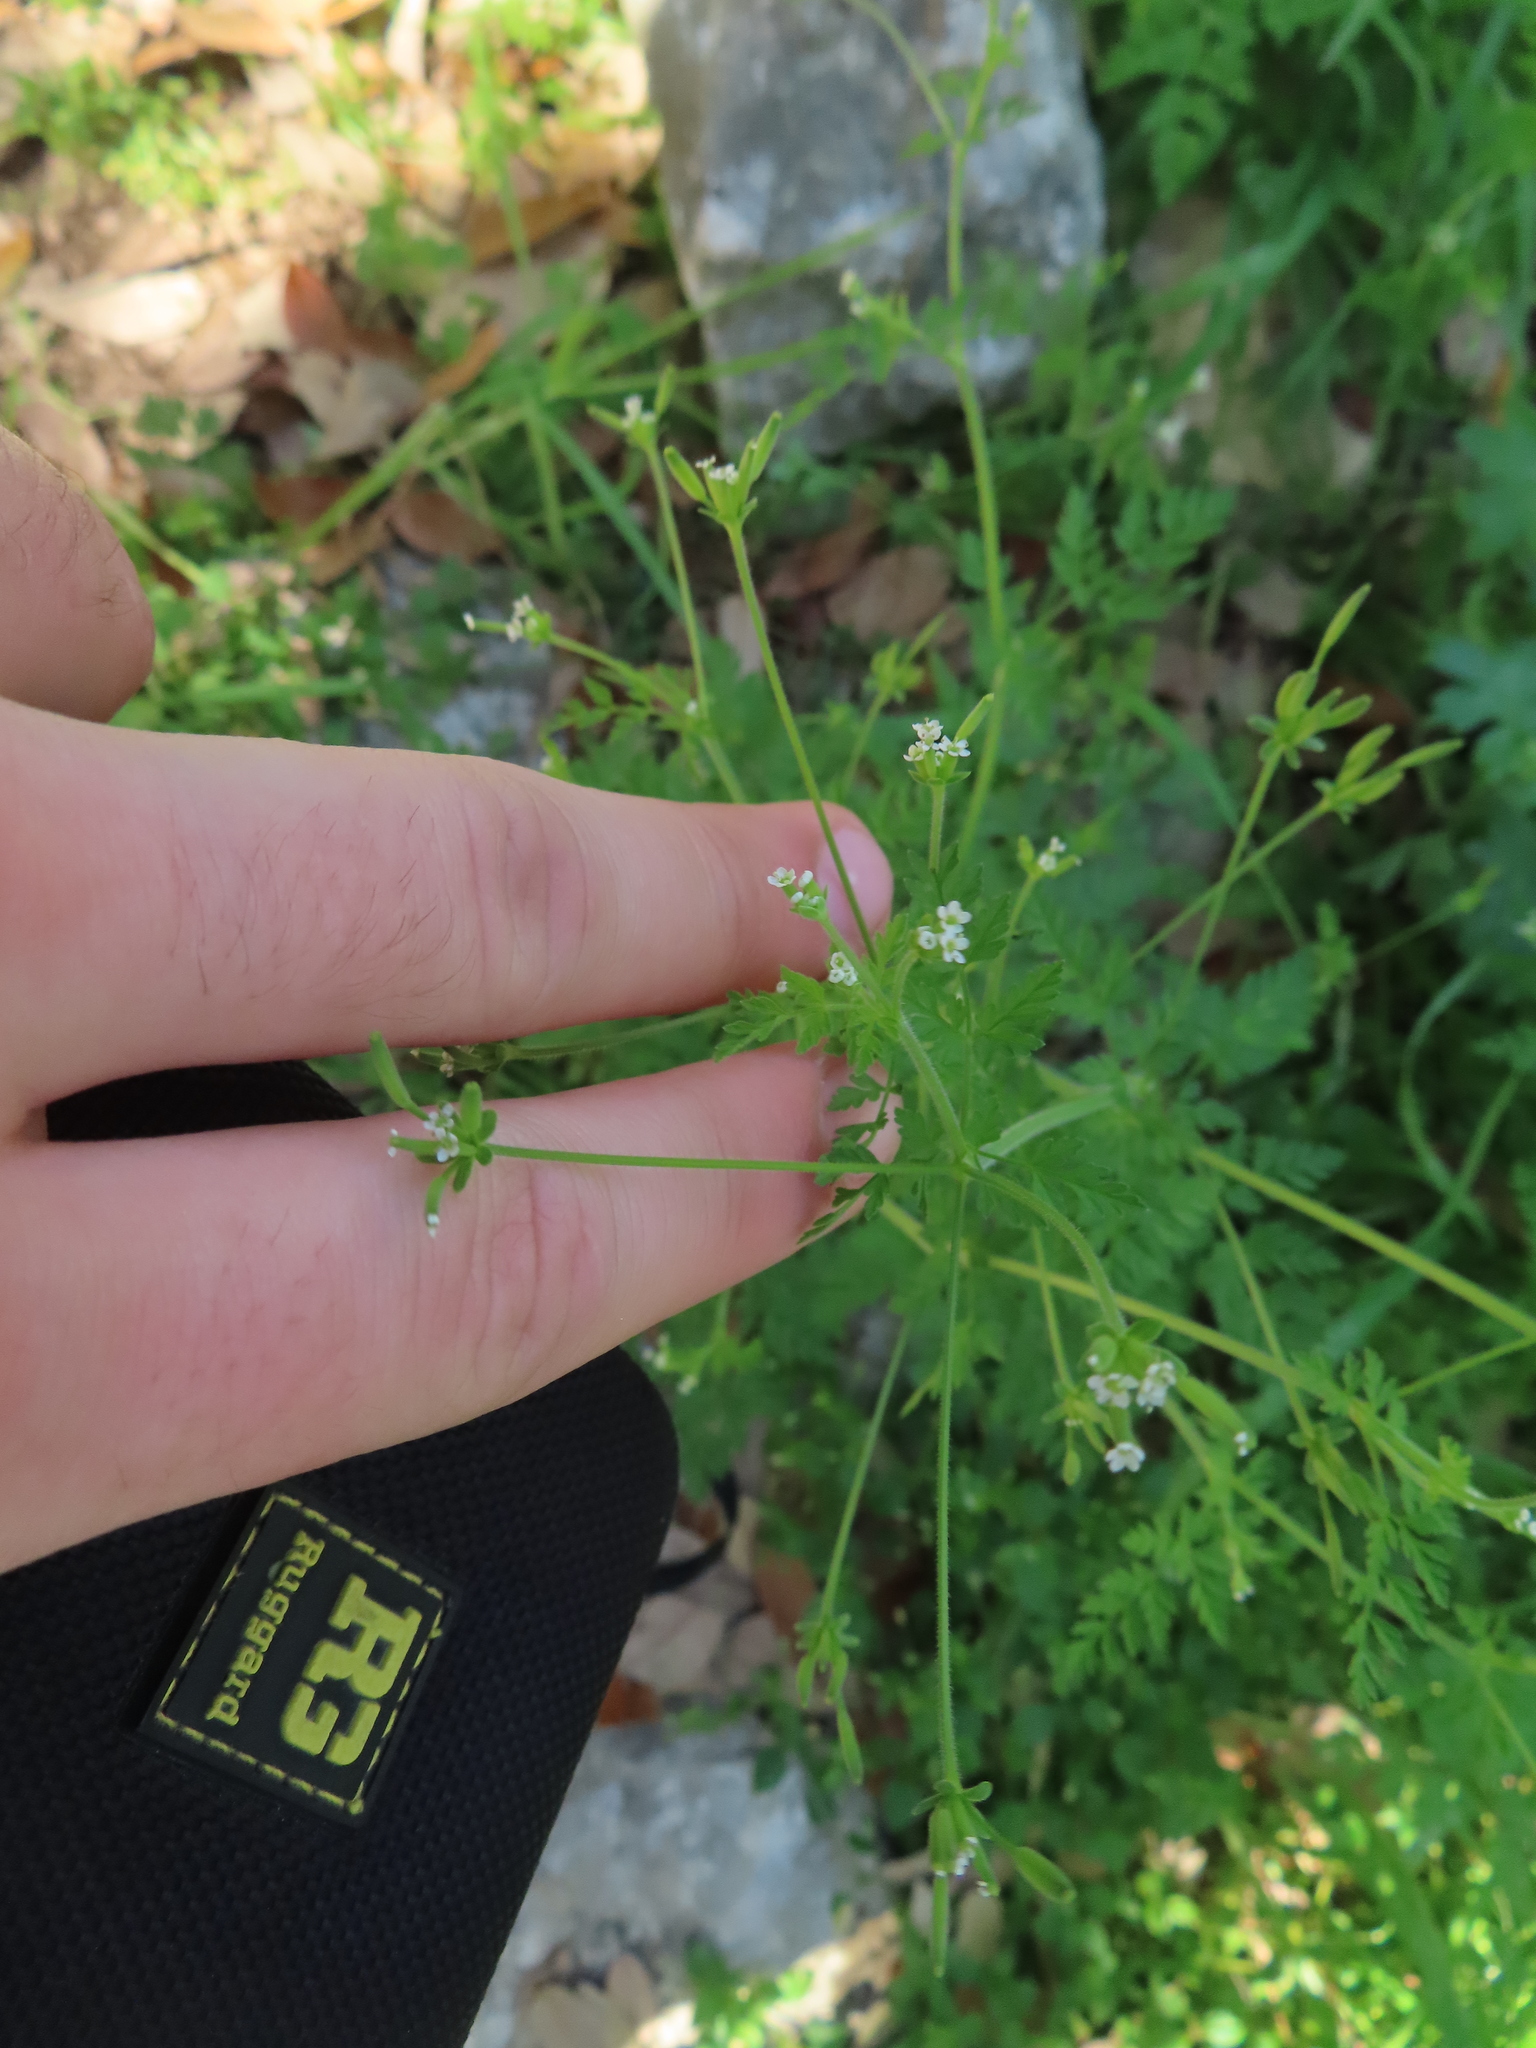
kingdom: Plantae
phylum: Tracheophyta
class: Magnoliopsida
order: Apiales
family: Apiaceae
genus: Chaerophyllum
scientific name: Chaerophyllum tainturieri
